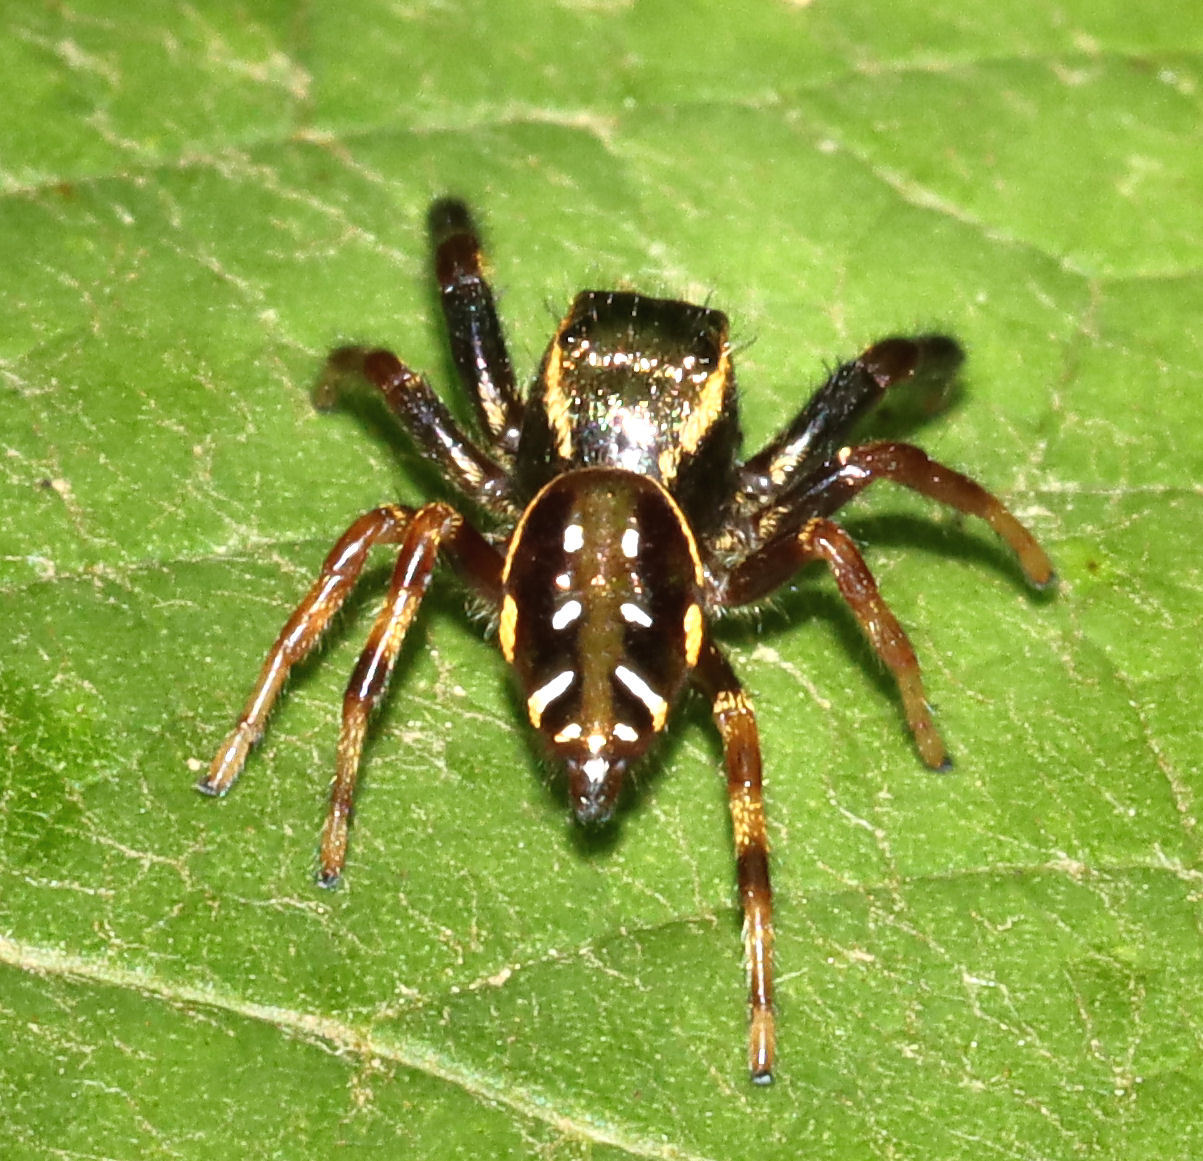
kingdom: Animalia
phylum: Arthropoda
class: Arachnida
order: Araneae
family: Salticidae
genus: Paraphidippus
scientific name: Paraphidippus aurantius
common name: Jumping spiders
